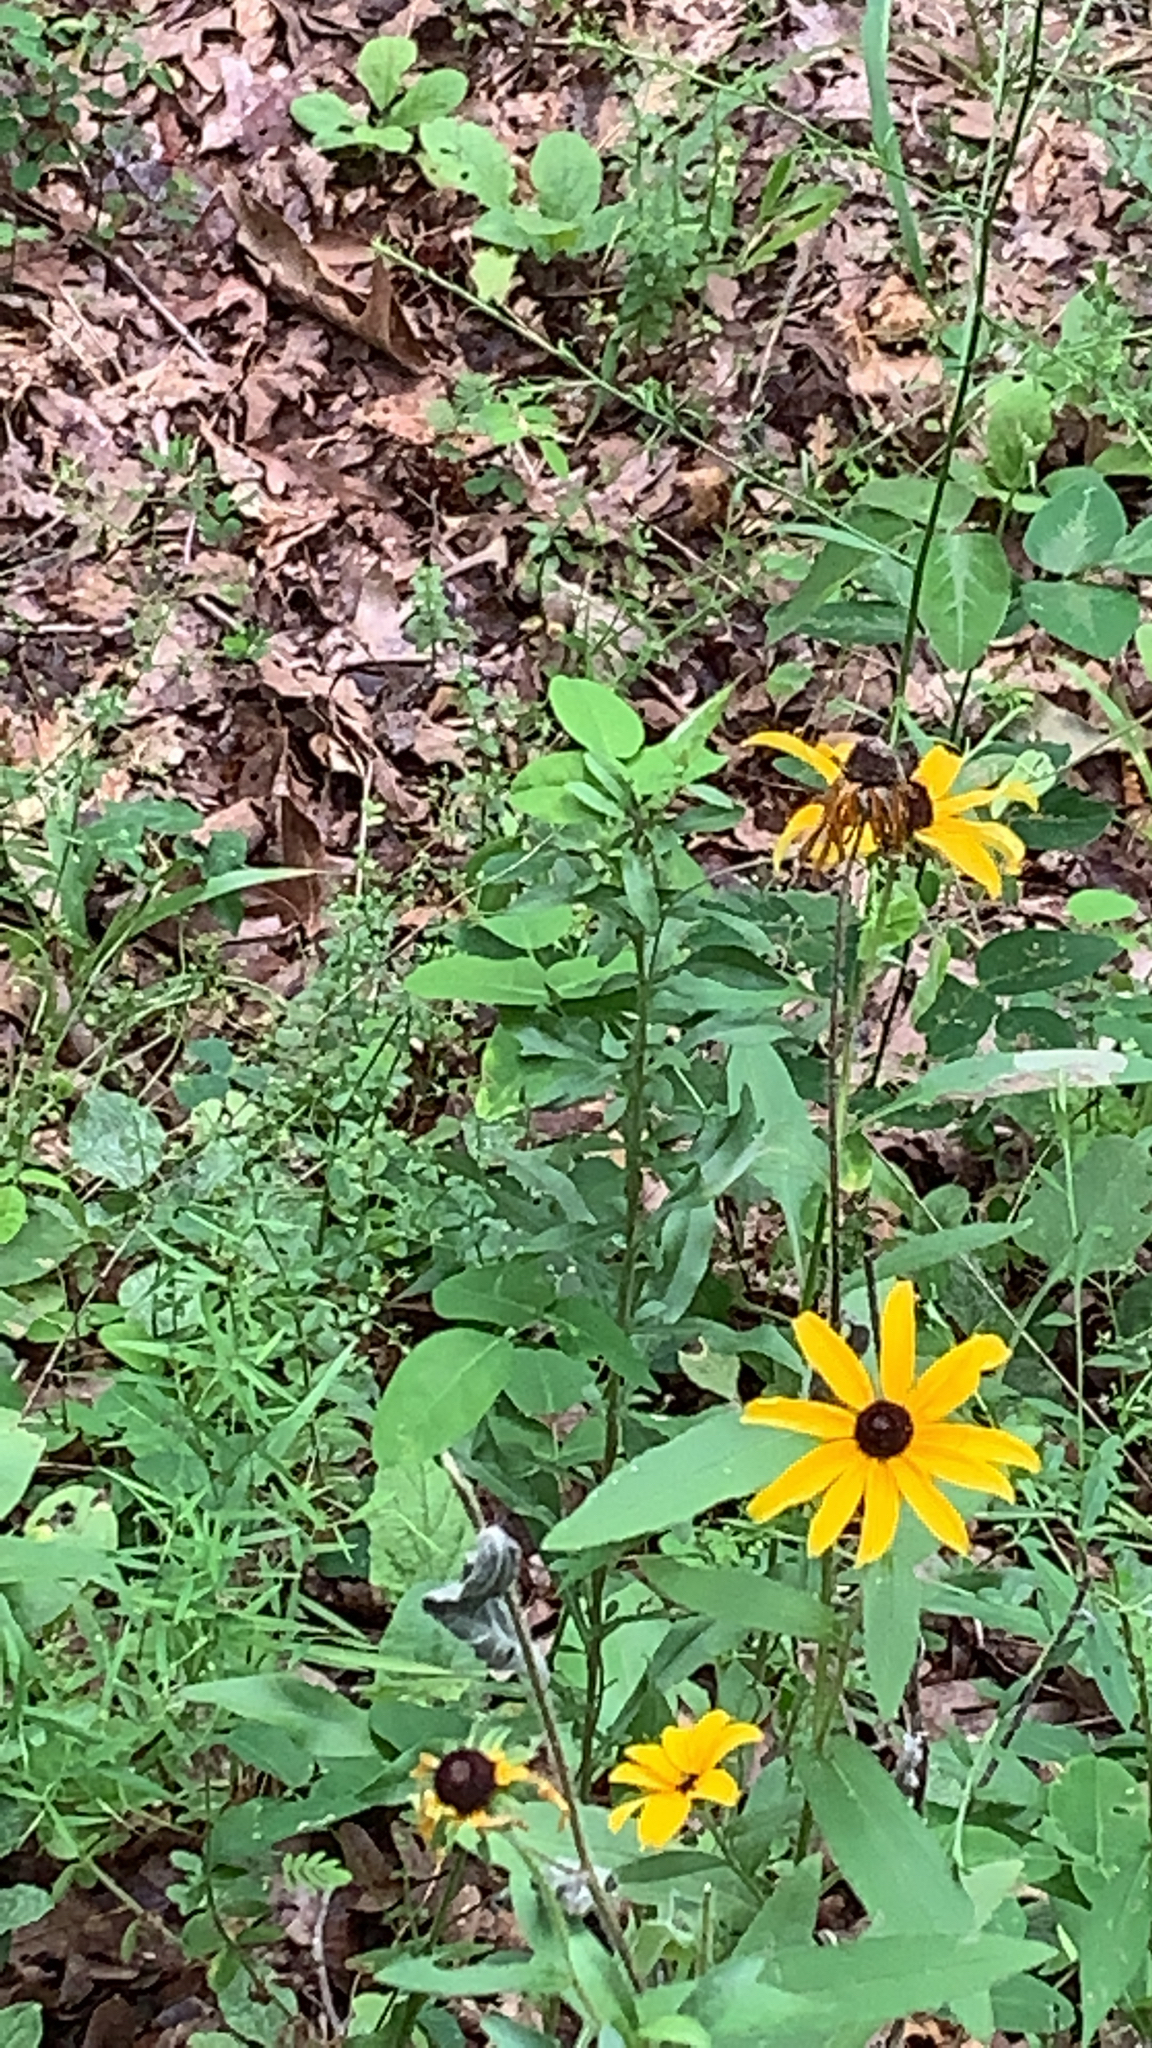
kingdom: Plantae
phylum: Tracheophyta
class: Magnoliopsida
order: Asterales
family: Asteraceae
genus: Rudbeckia
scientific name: Rudbeckia hirta
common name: Black-eyed-susan
